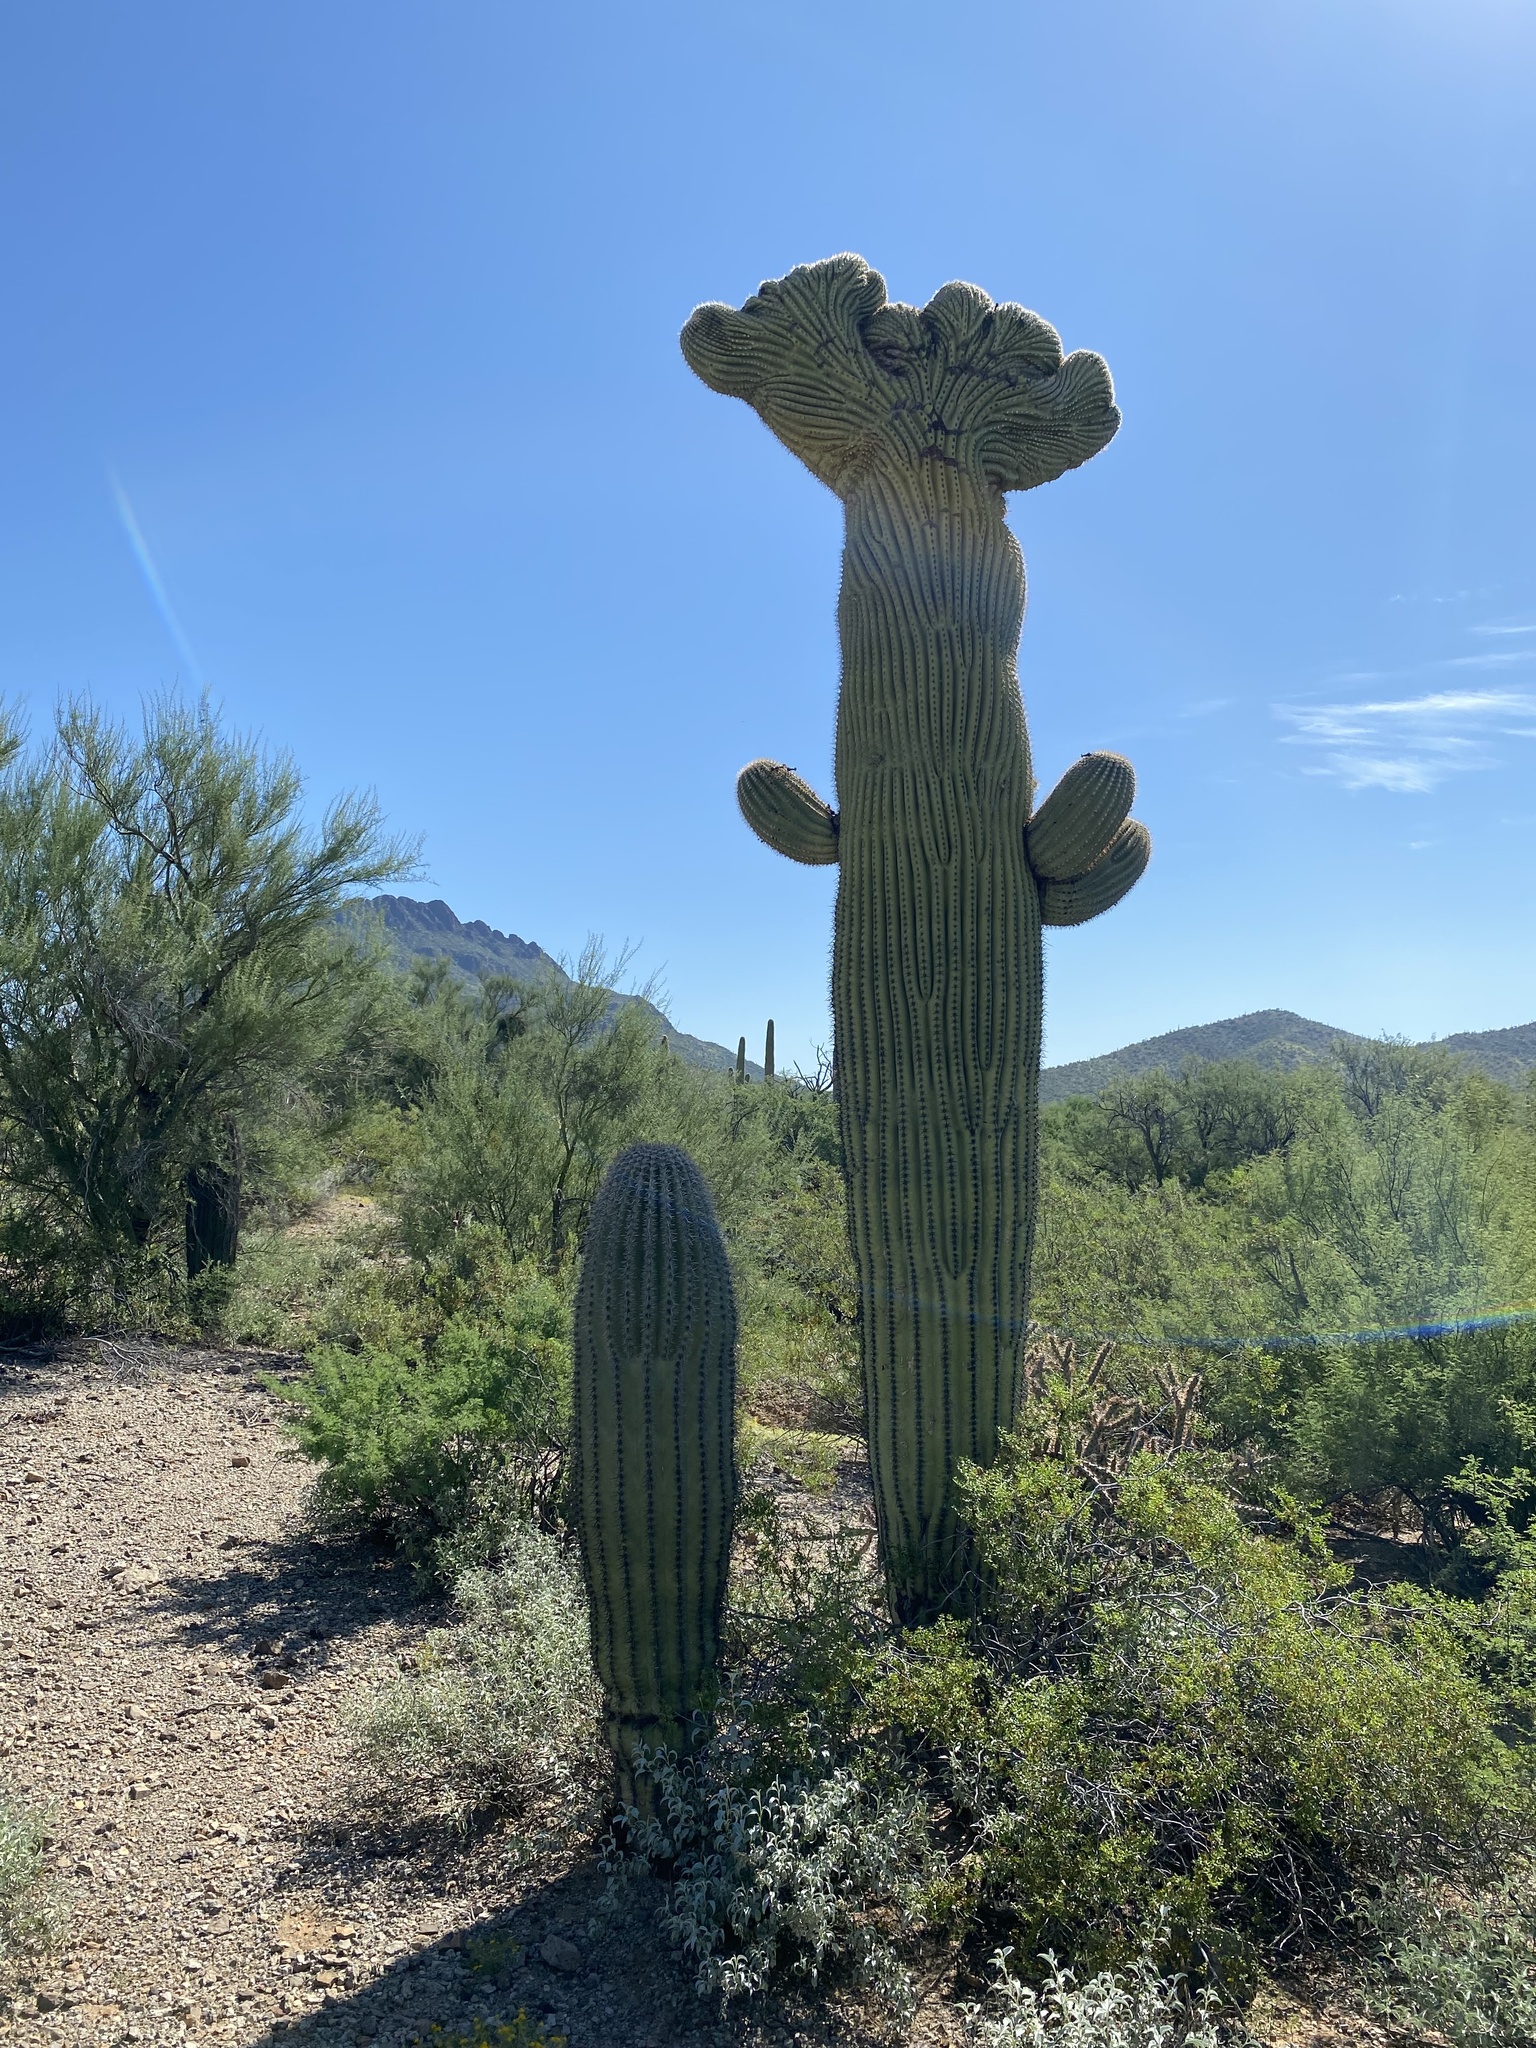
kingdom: Plantae
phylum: Tracheophyta
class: Magnoliopsida
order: Caryophyllales
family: Cactaceae
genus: Carnegiea
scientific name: Carnegiea gigantea
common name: Saguaro
